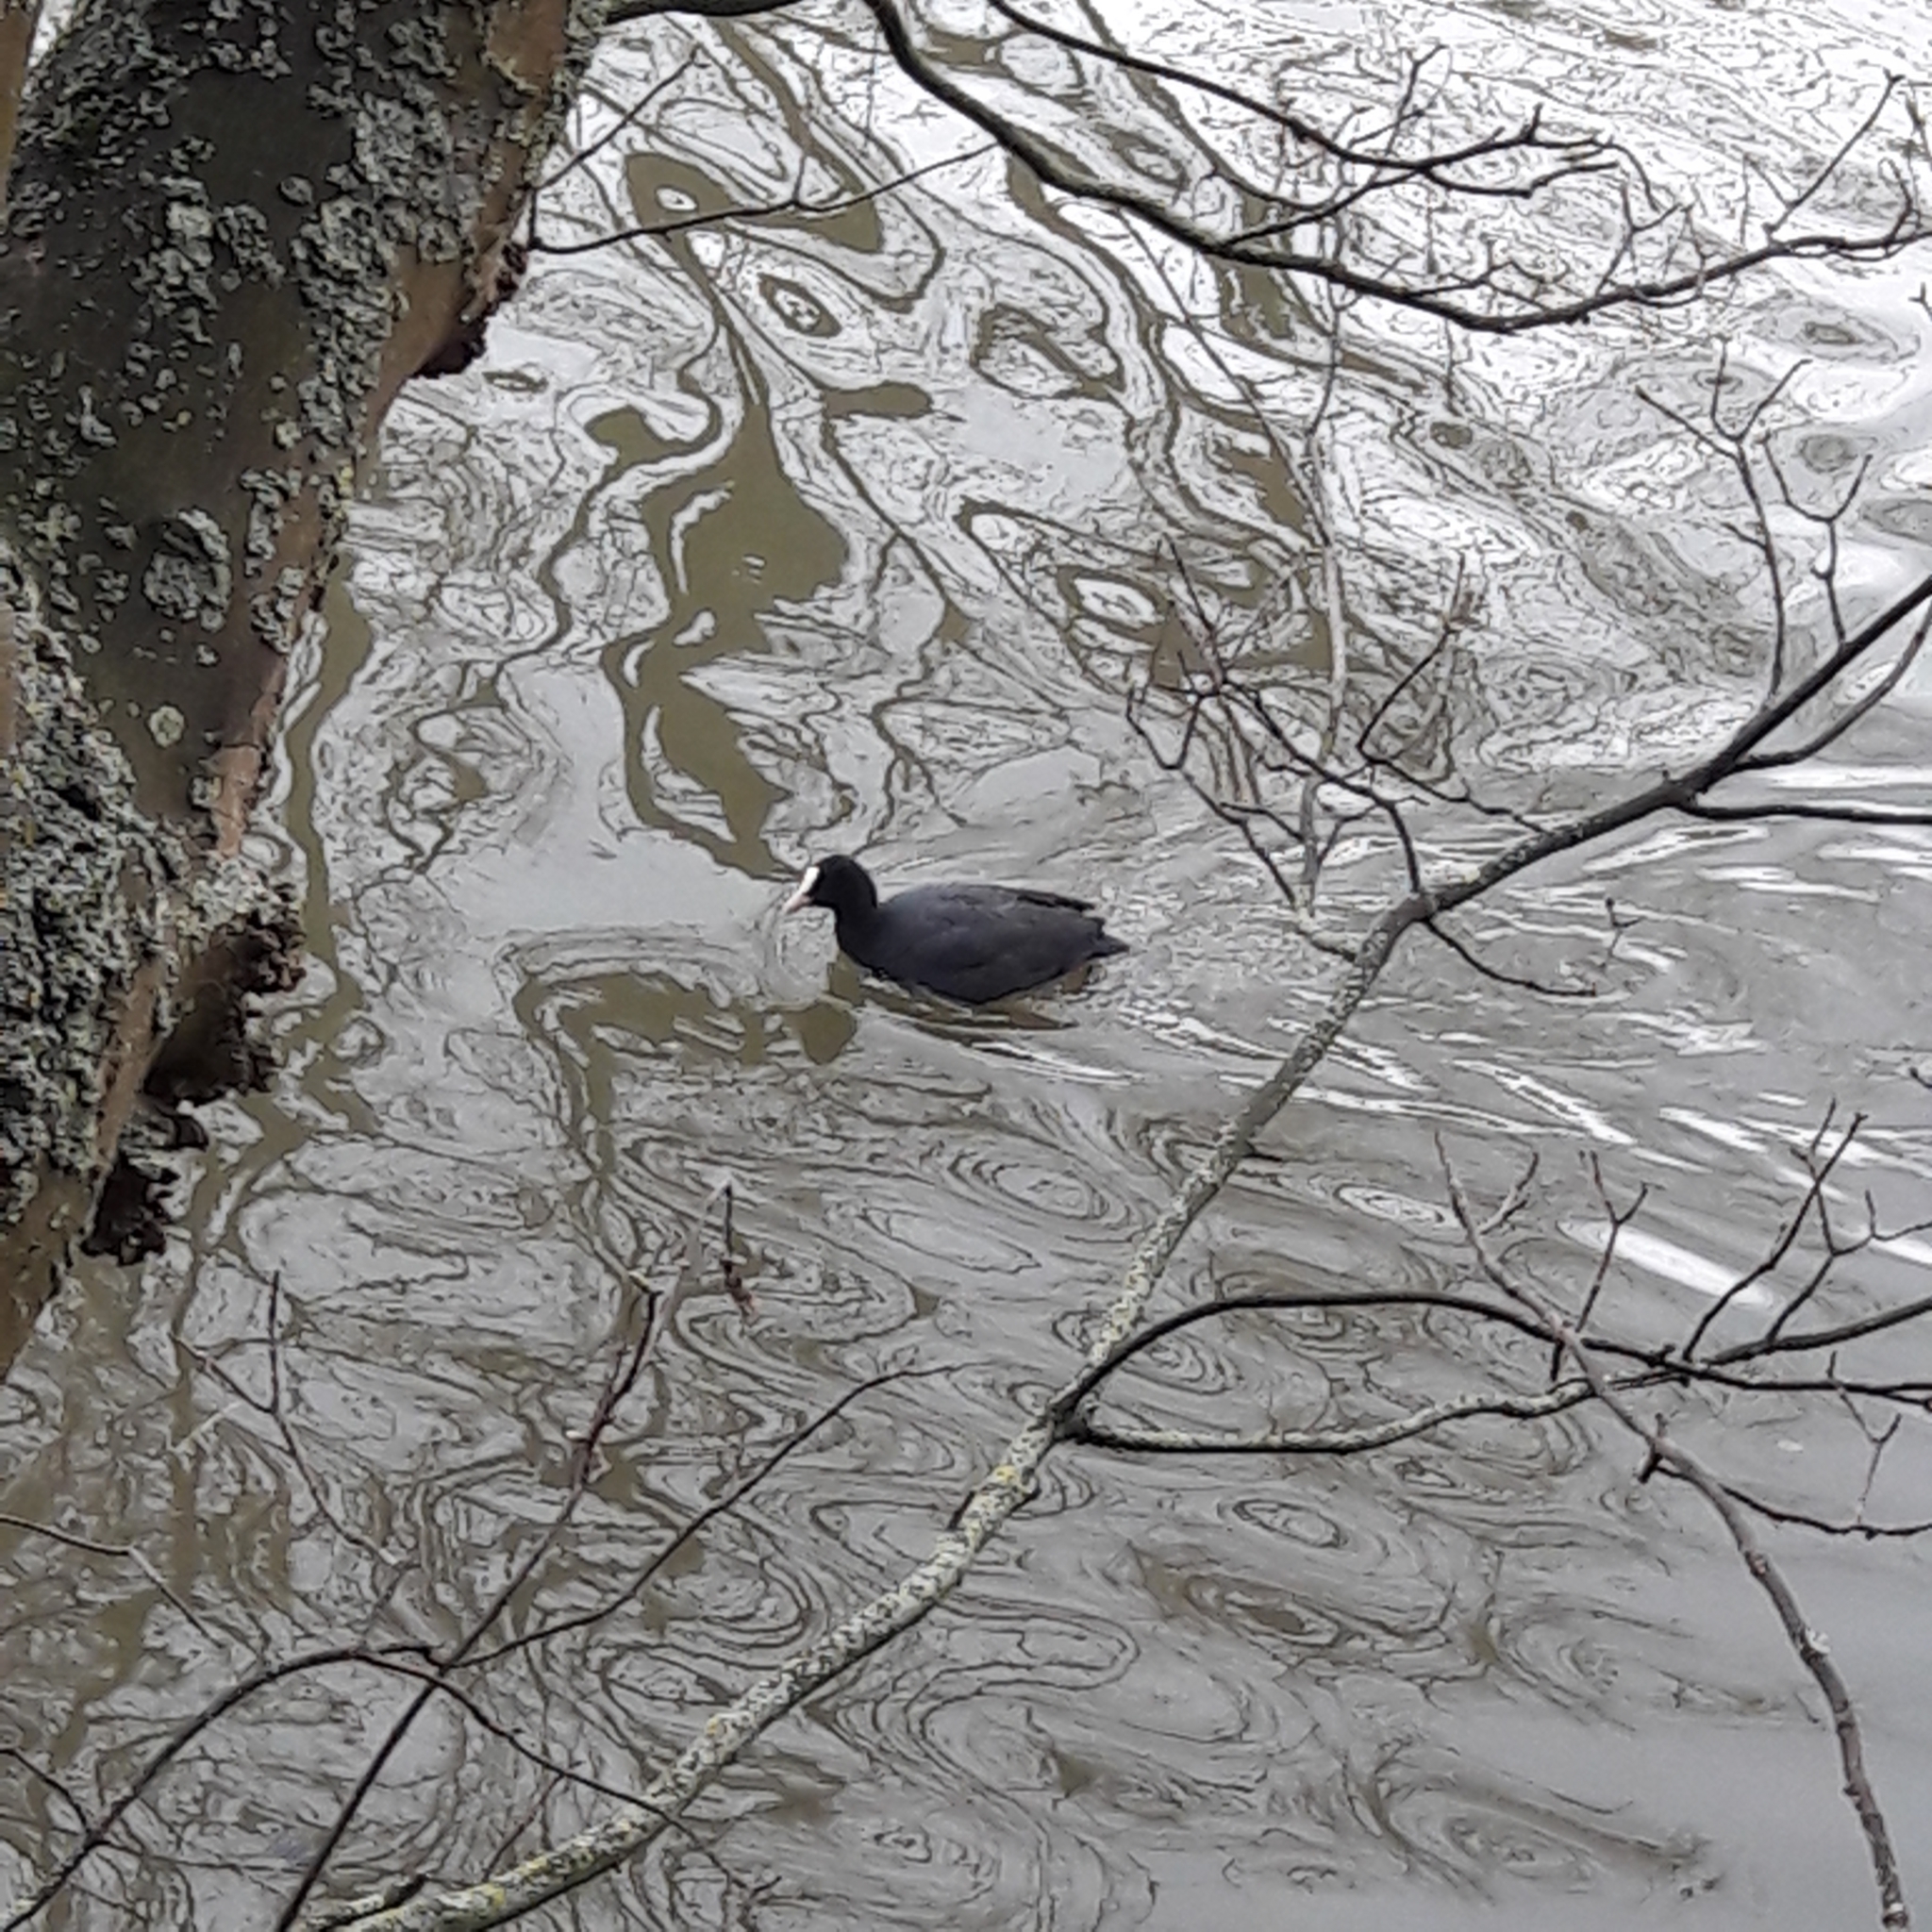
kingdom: Animalia
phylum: Chordata
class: Aves
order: Gruiformes
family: Rallidae
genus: Fulica
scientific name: Fulica atra
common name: Eurasian coot
